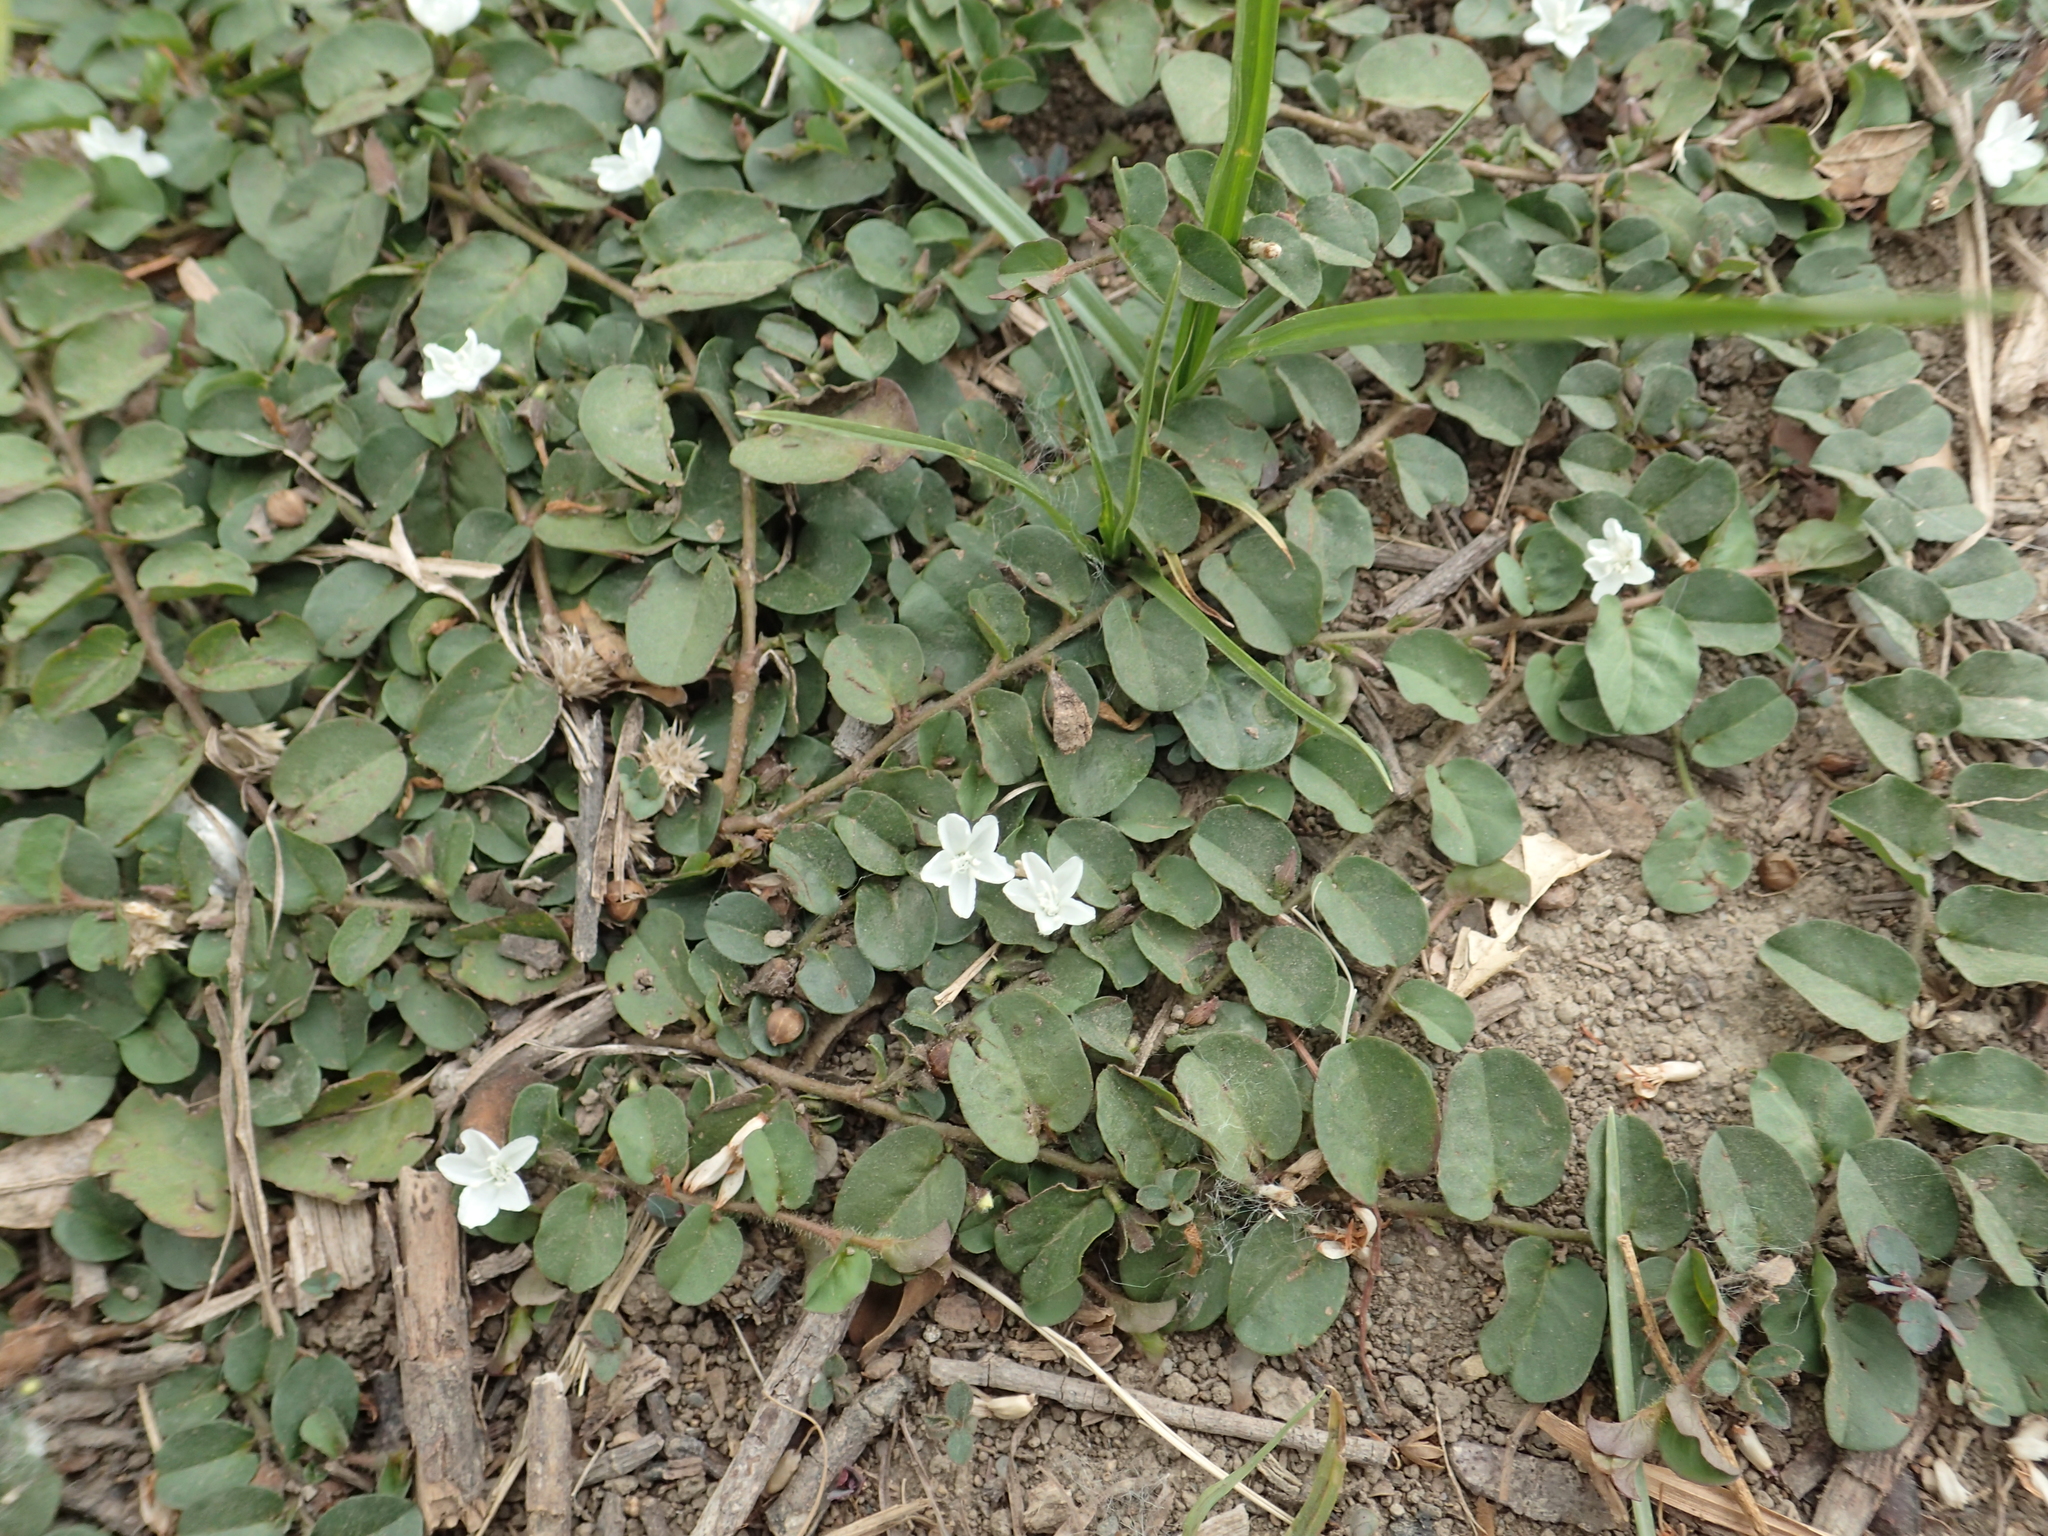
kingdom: Plantae
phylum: Tracheophyta
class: Magnoliopsida
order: Solanales
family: Convolvulaceae
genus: Evolvulus
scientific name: Evolvulus nummularius
